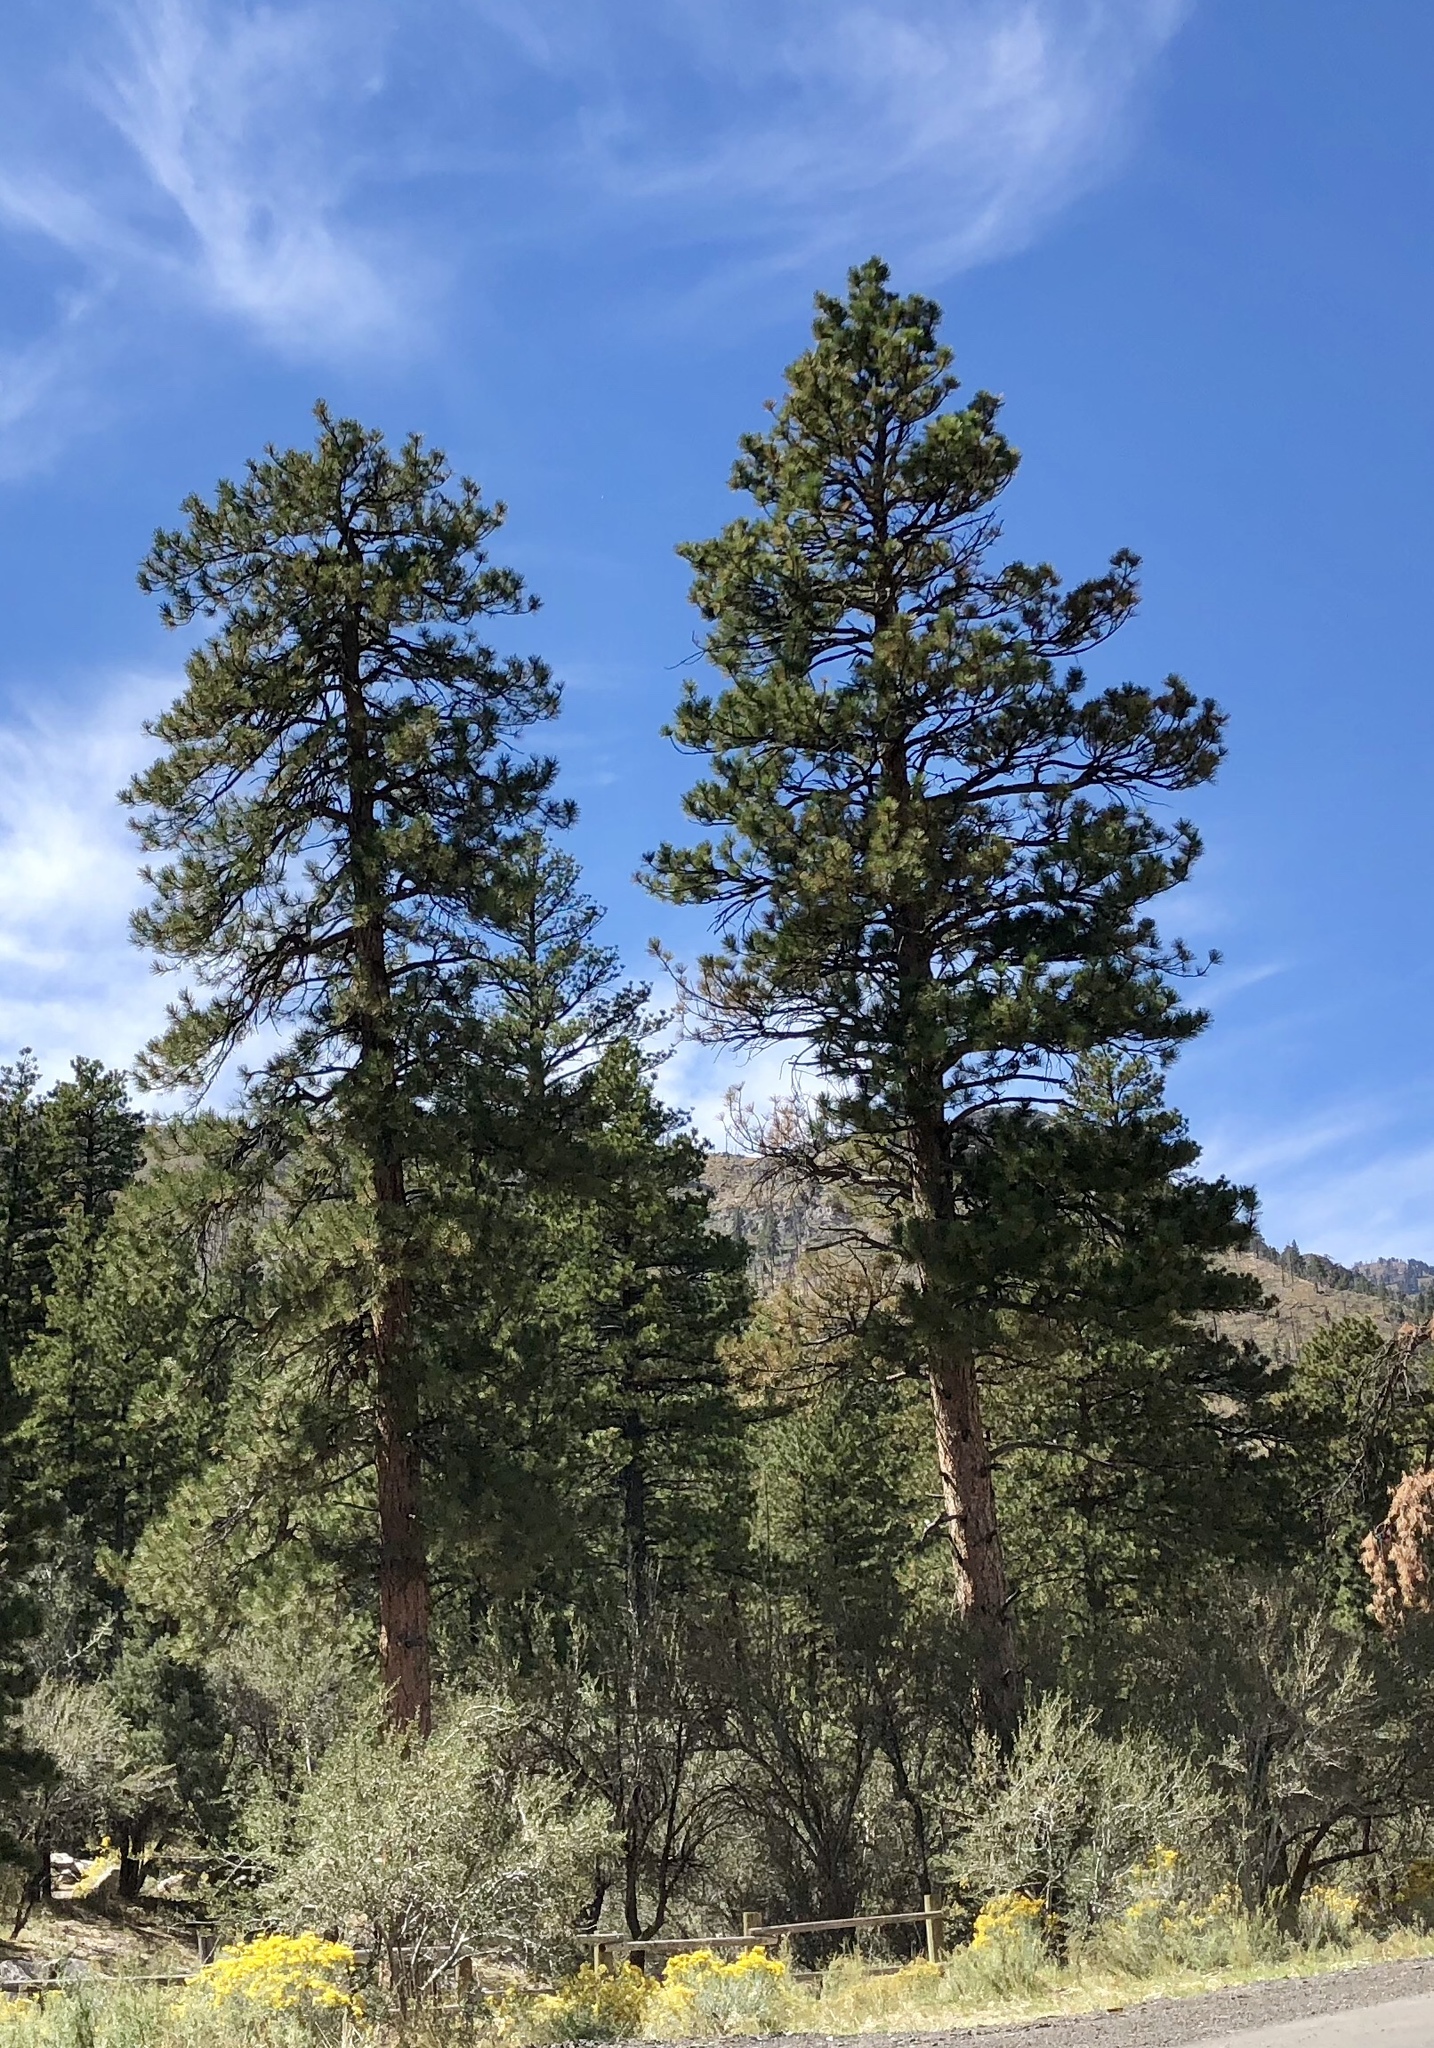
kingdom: Plantae
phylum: Tracheophyta
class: Pinopsida
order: Pinales
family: Pinaceae
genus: Pinus
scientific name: Pinus ponderosa
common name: Western yellow-pine
